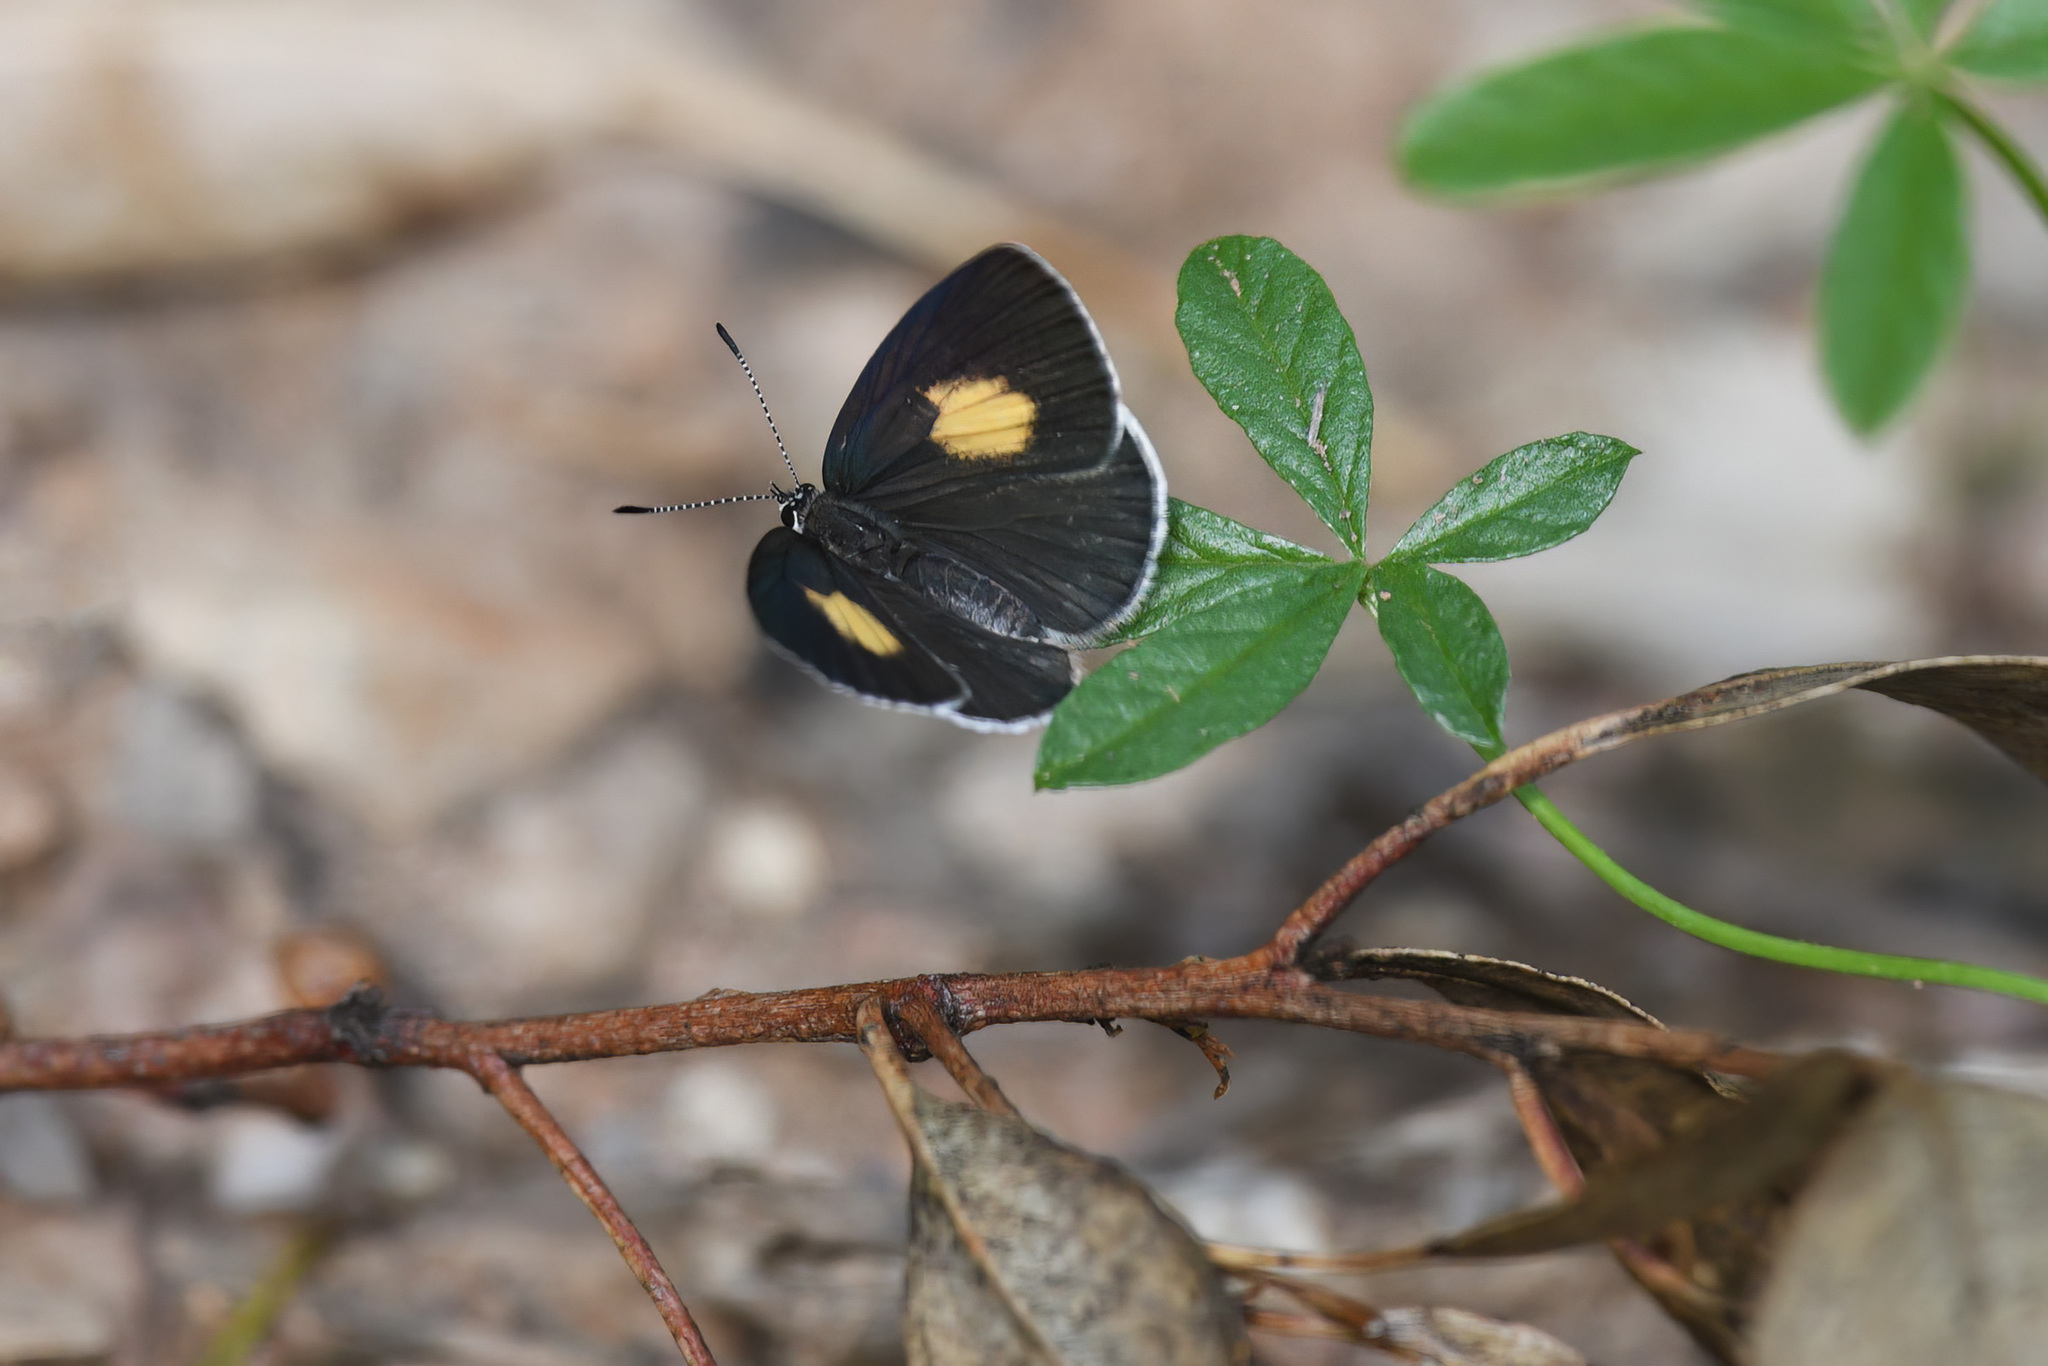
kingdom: Animalia
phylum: Arthropoda
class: Insecta
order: Lepidoptera
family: Lycaenidae
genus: Candalides
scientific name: Candalides xanthospilos
